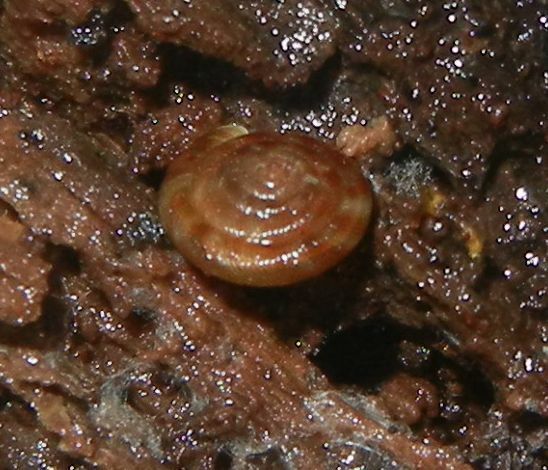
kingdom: Animalia
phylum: Mollusca
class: Gastropoda
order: Stylommatophora
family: Discidae
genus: Discus
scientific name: Discus rotundatus
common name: Rounded snail
